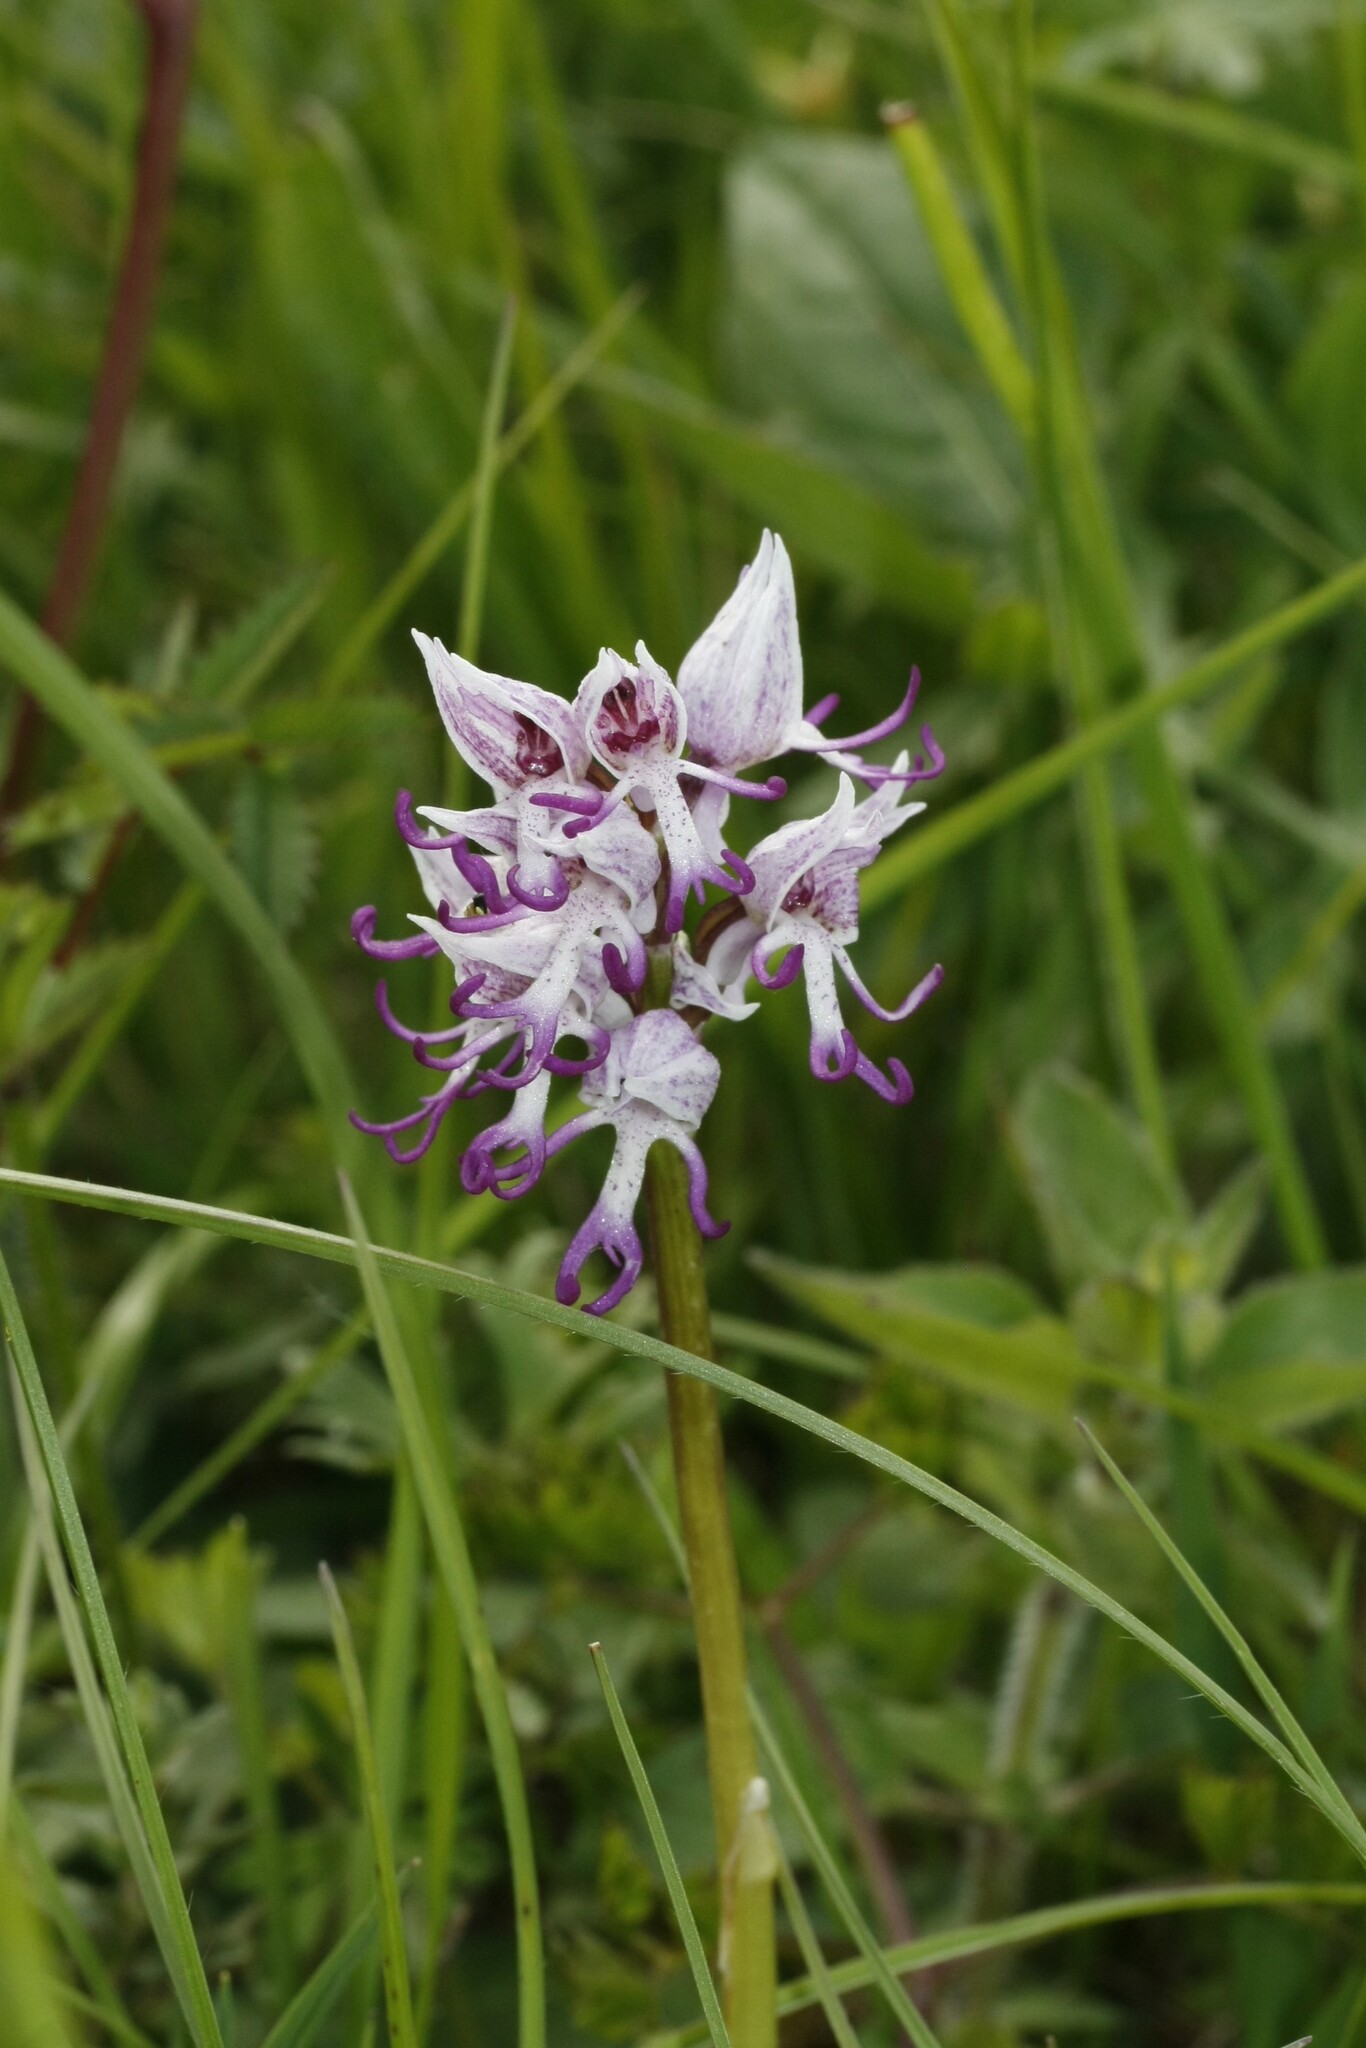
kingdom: Plantae
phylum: Tracheophyta
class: Liliopsida
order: Asparagales
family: Orchidaceae
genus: Orchis
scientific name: Orchis simia
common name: Monkey orchid
